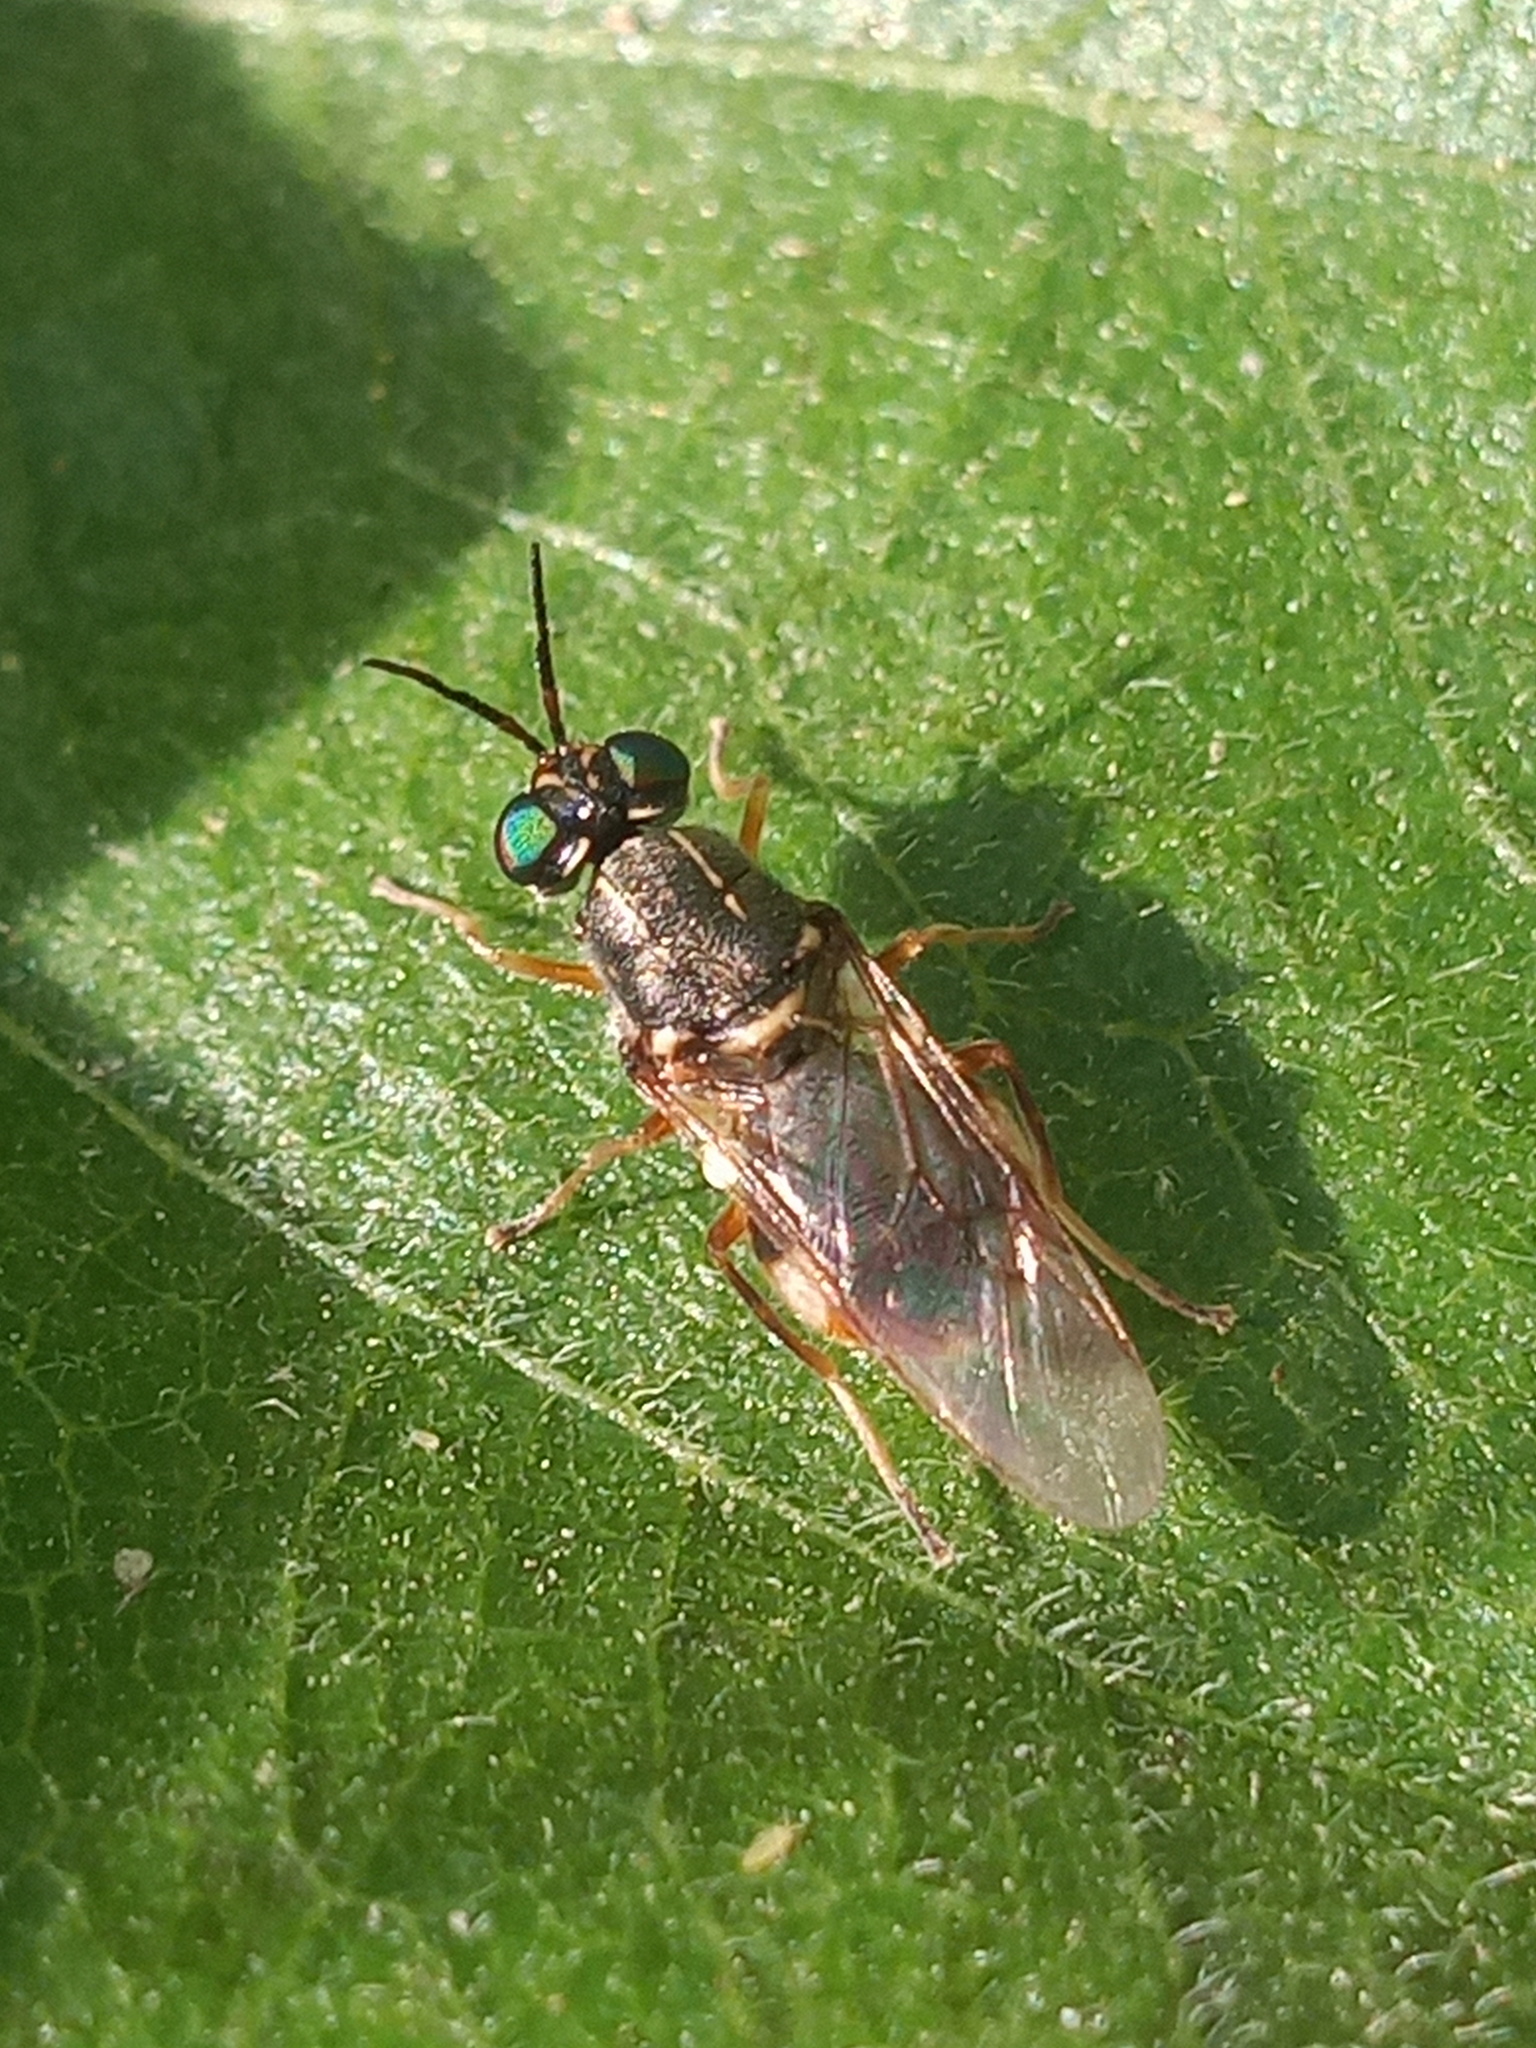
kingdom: Animalia
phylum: Arthropoda
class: Insecta
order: Diptera
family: Stratiomyidae
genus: Euparyphus
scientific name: Euparyphus patagius
